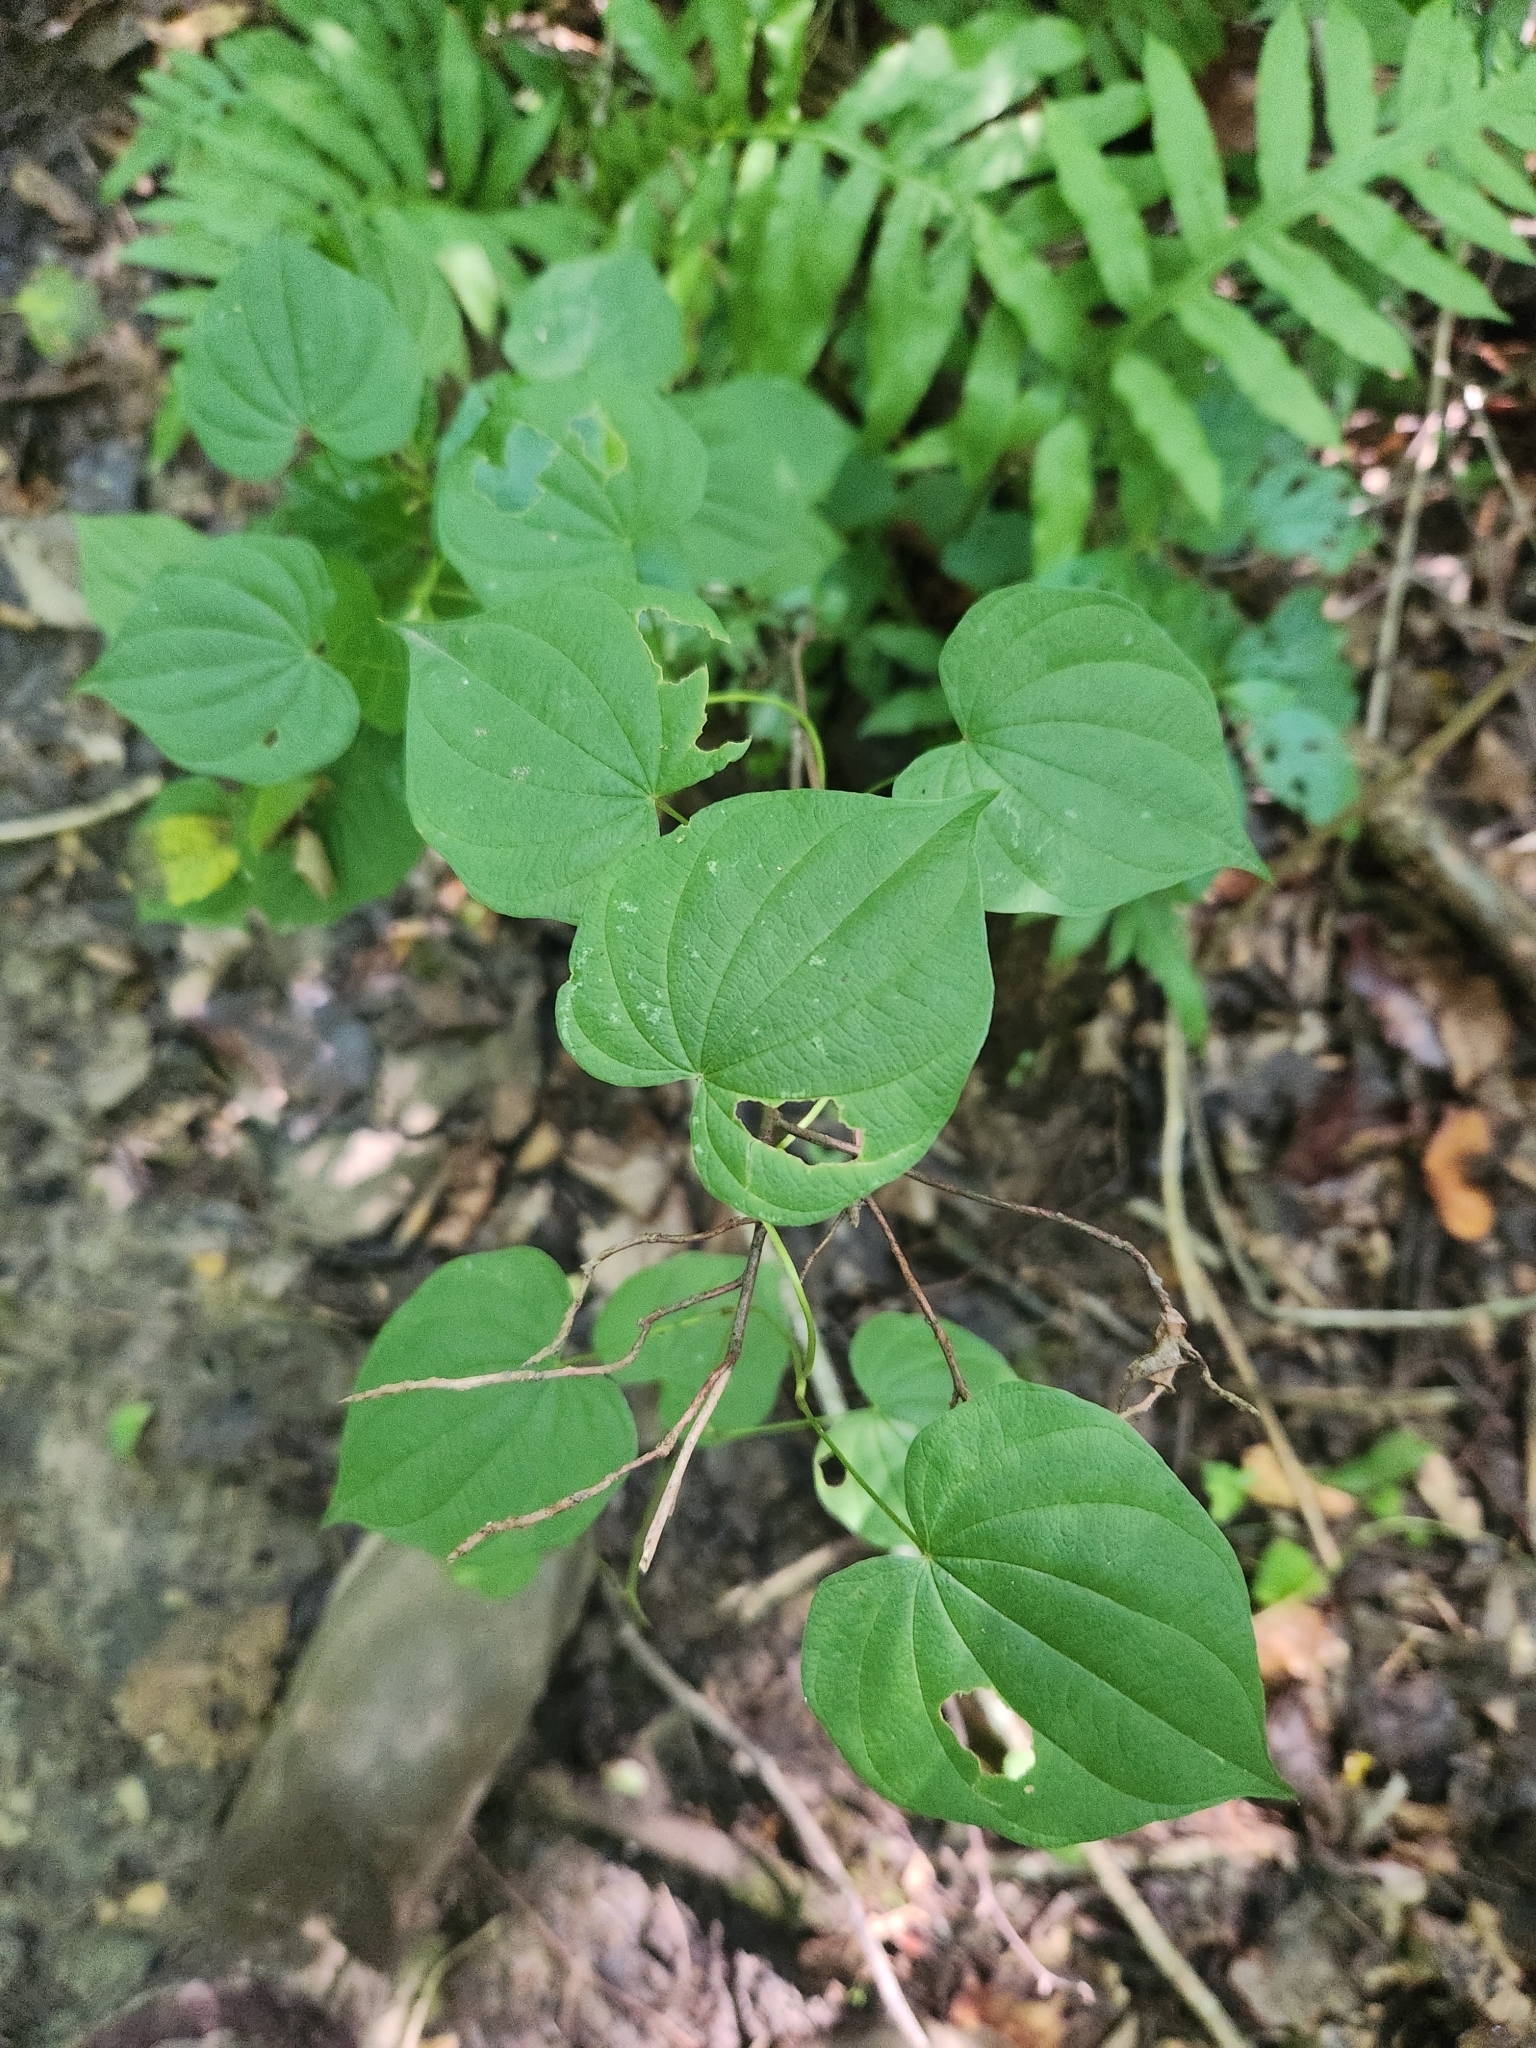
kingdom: Plantae
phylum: Tracheophyta
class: Liliopsida
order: Dioscoreales
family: Dioscoreaceae
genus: Dioscorea
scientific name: Dioscorea villosa
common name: Wild yam
